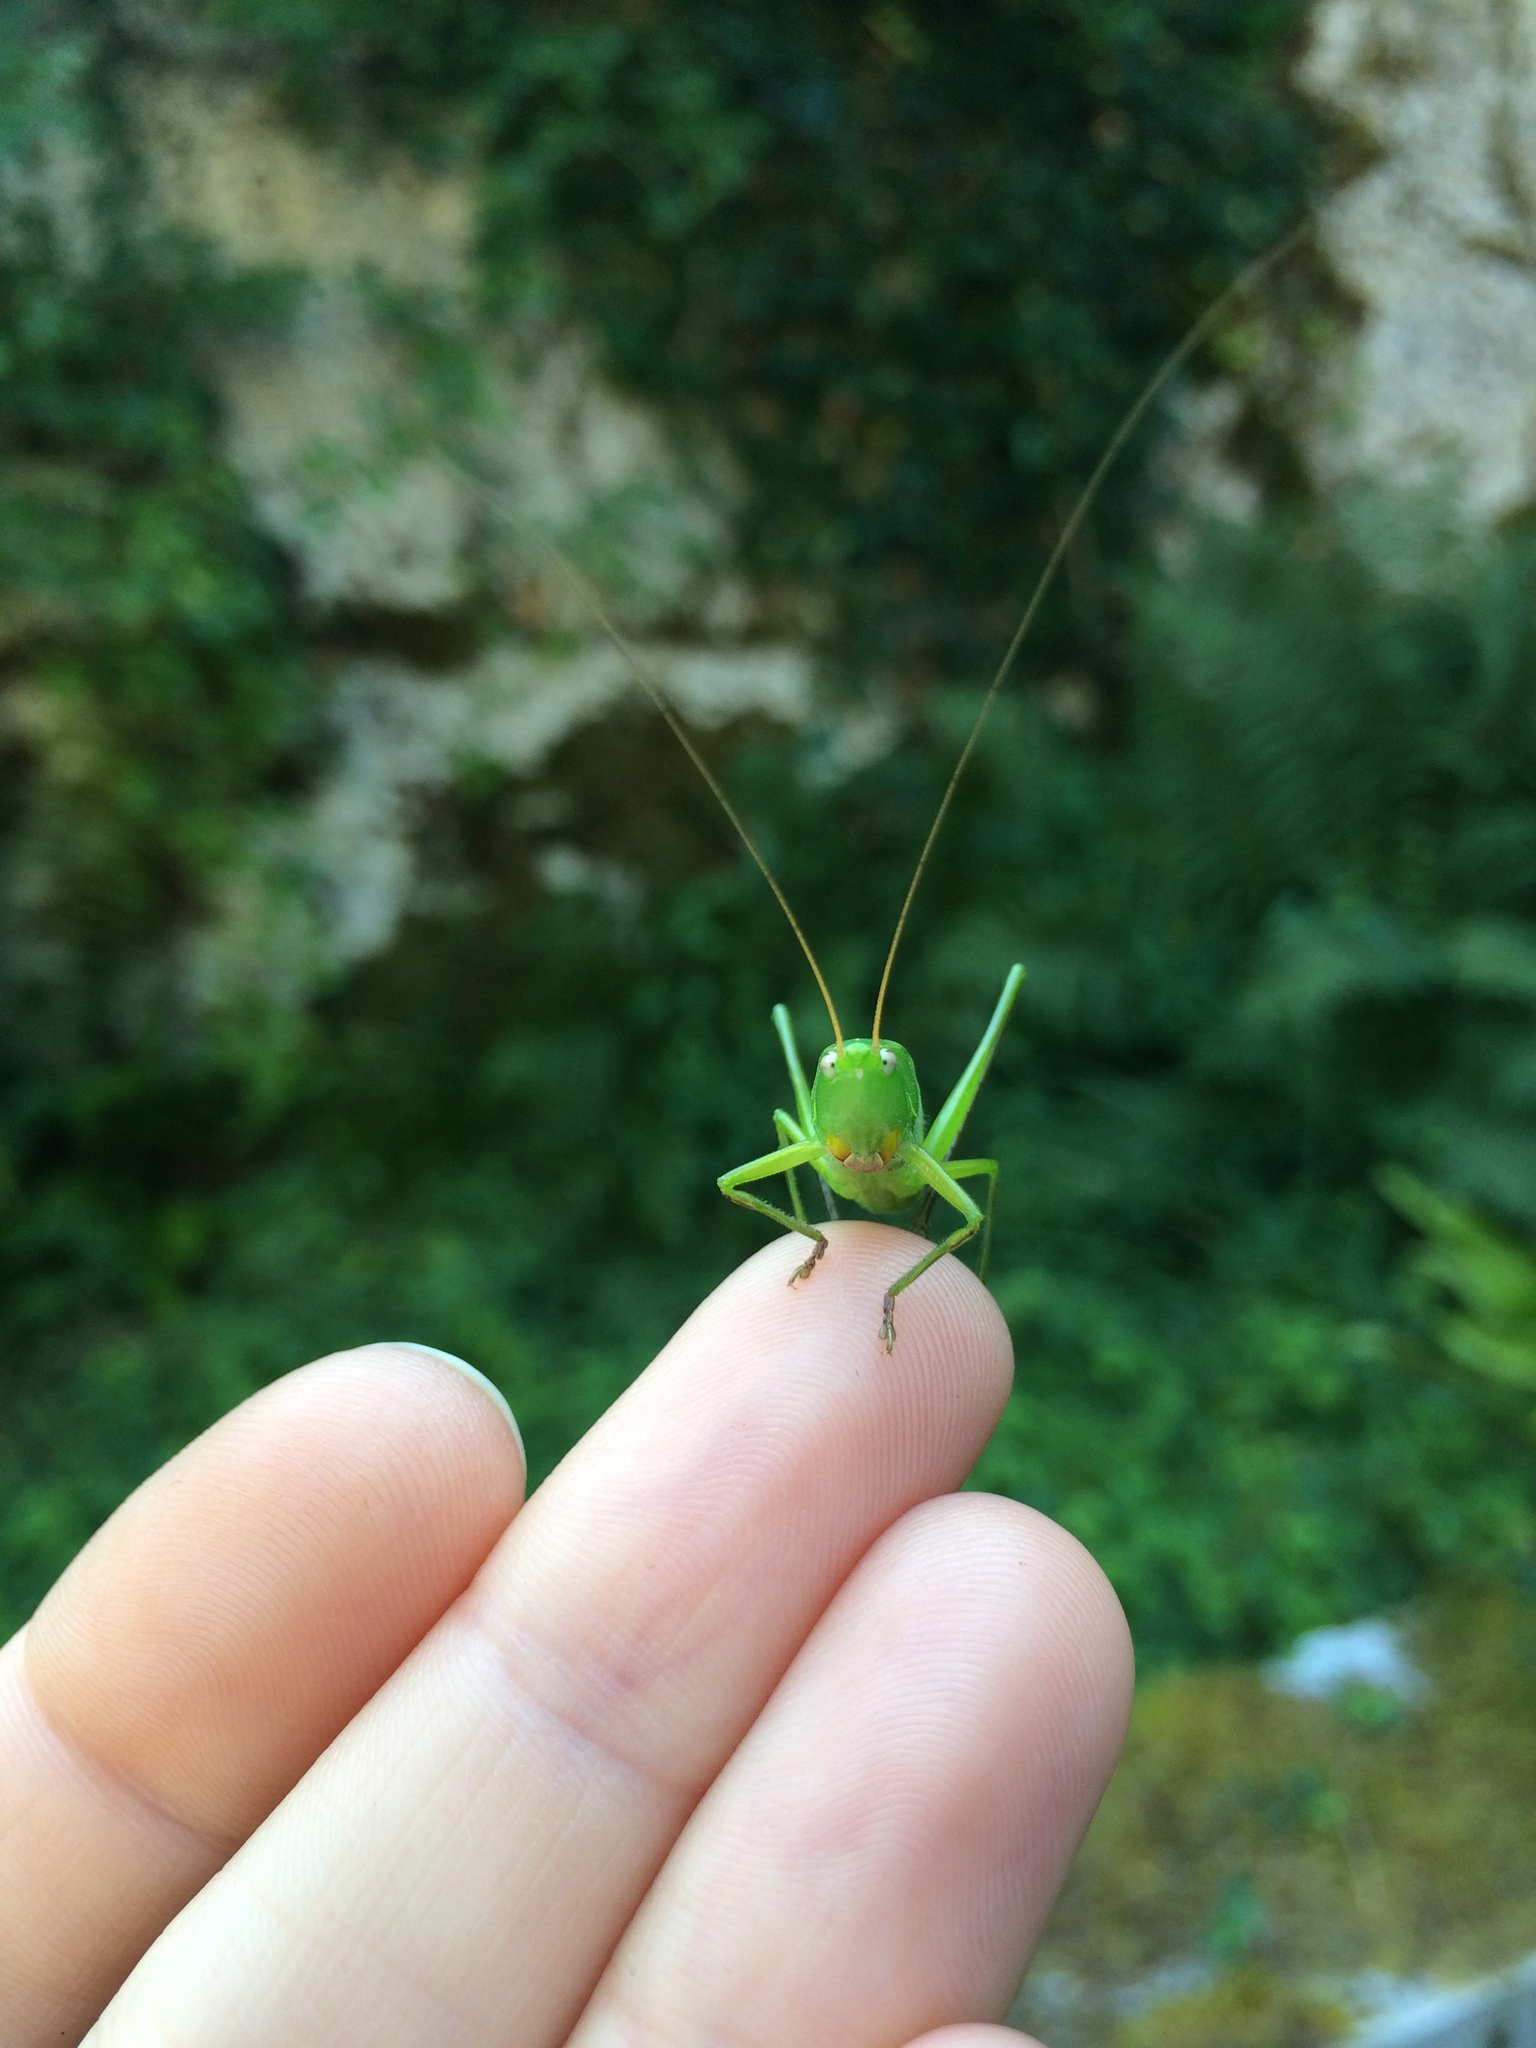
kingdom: Animalia
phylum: Arthropoda
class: Insecta
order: Orthoptera
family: Tettigoniidae
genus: Ruspolia
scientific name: Ruspolia nitidula
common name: Large conehead
